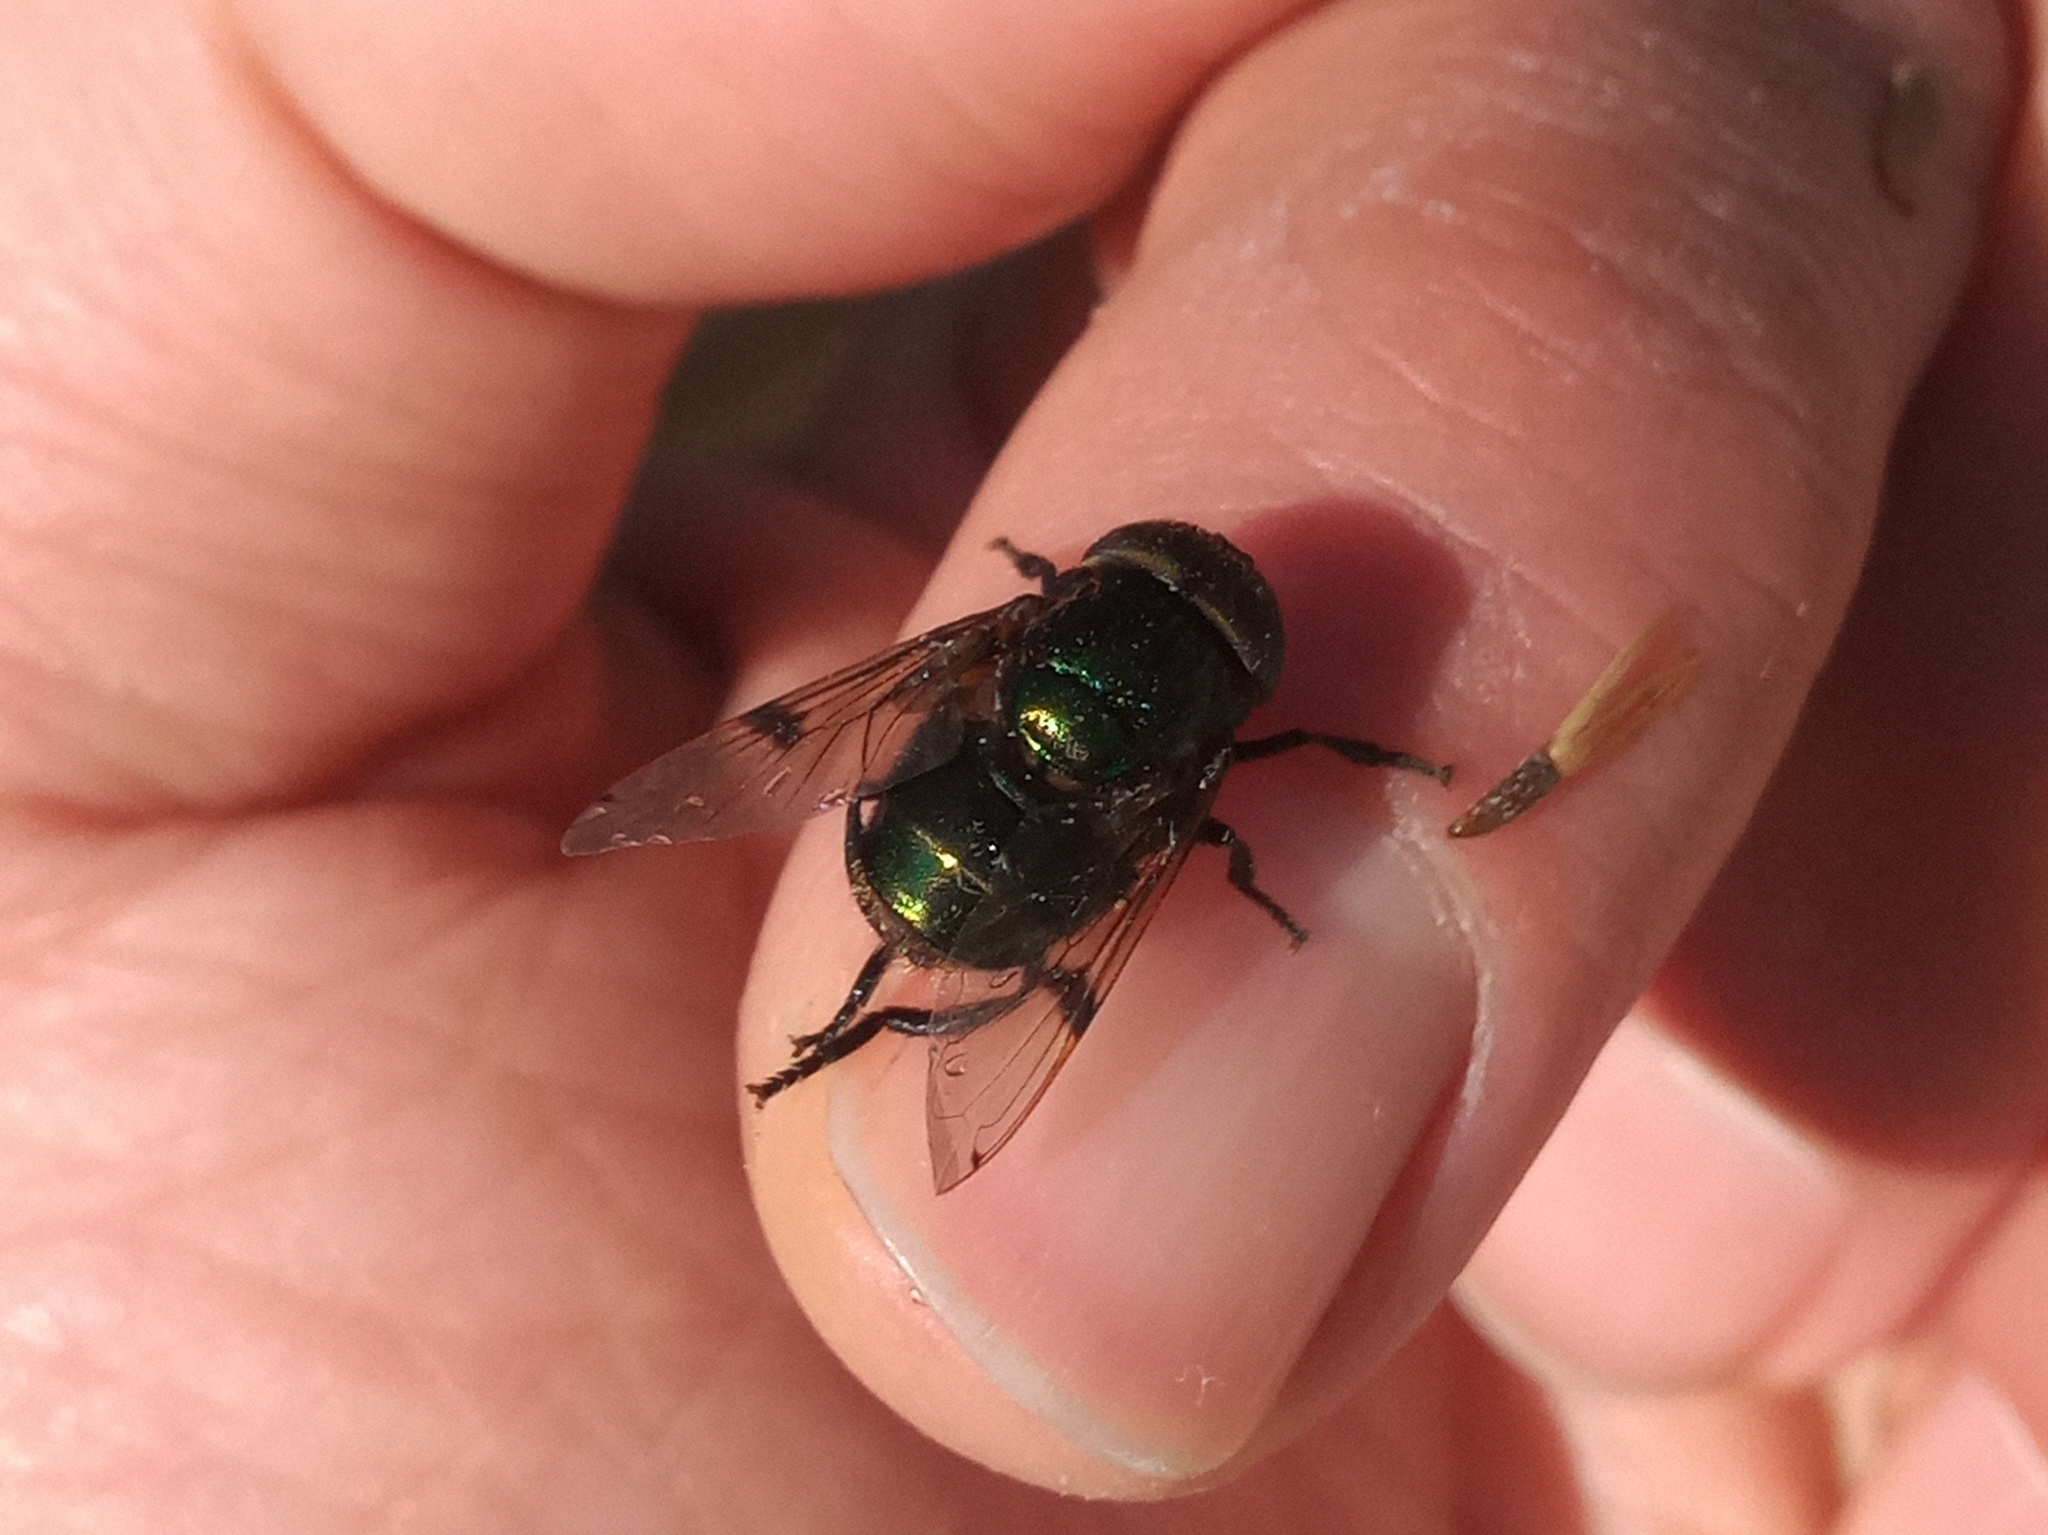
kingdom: Animalia
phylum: Arthropoda
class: Insecta
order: Diptera
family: Syrphidae
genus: Ornidia
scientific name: Ornidia obesa
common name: Syrphid fly
